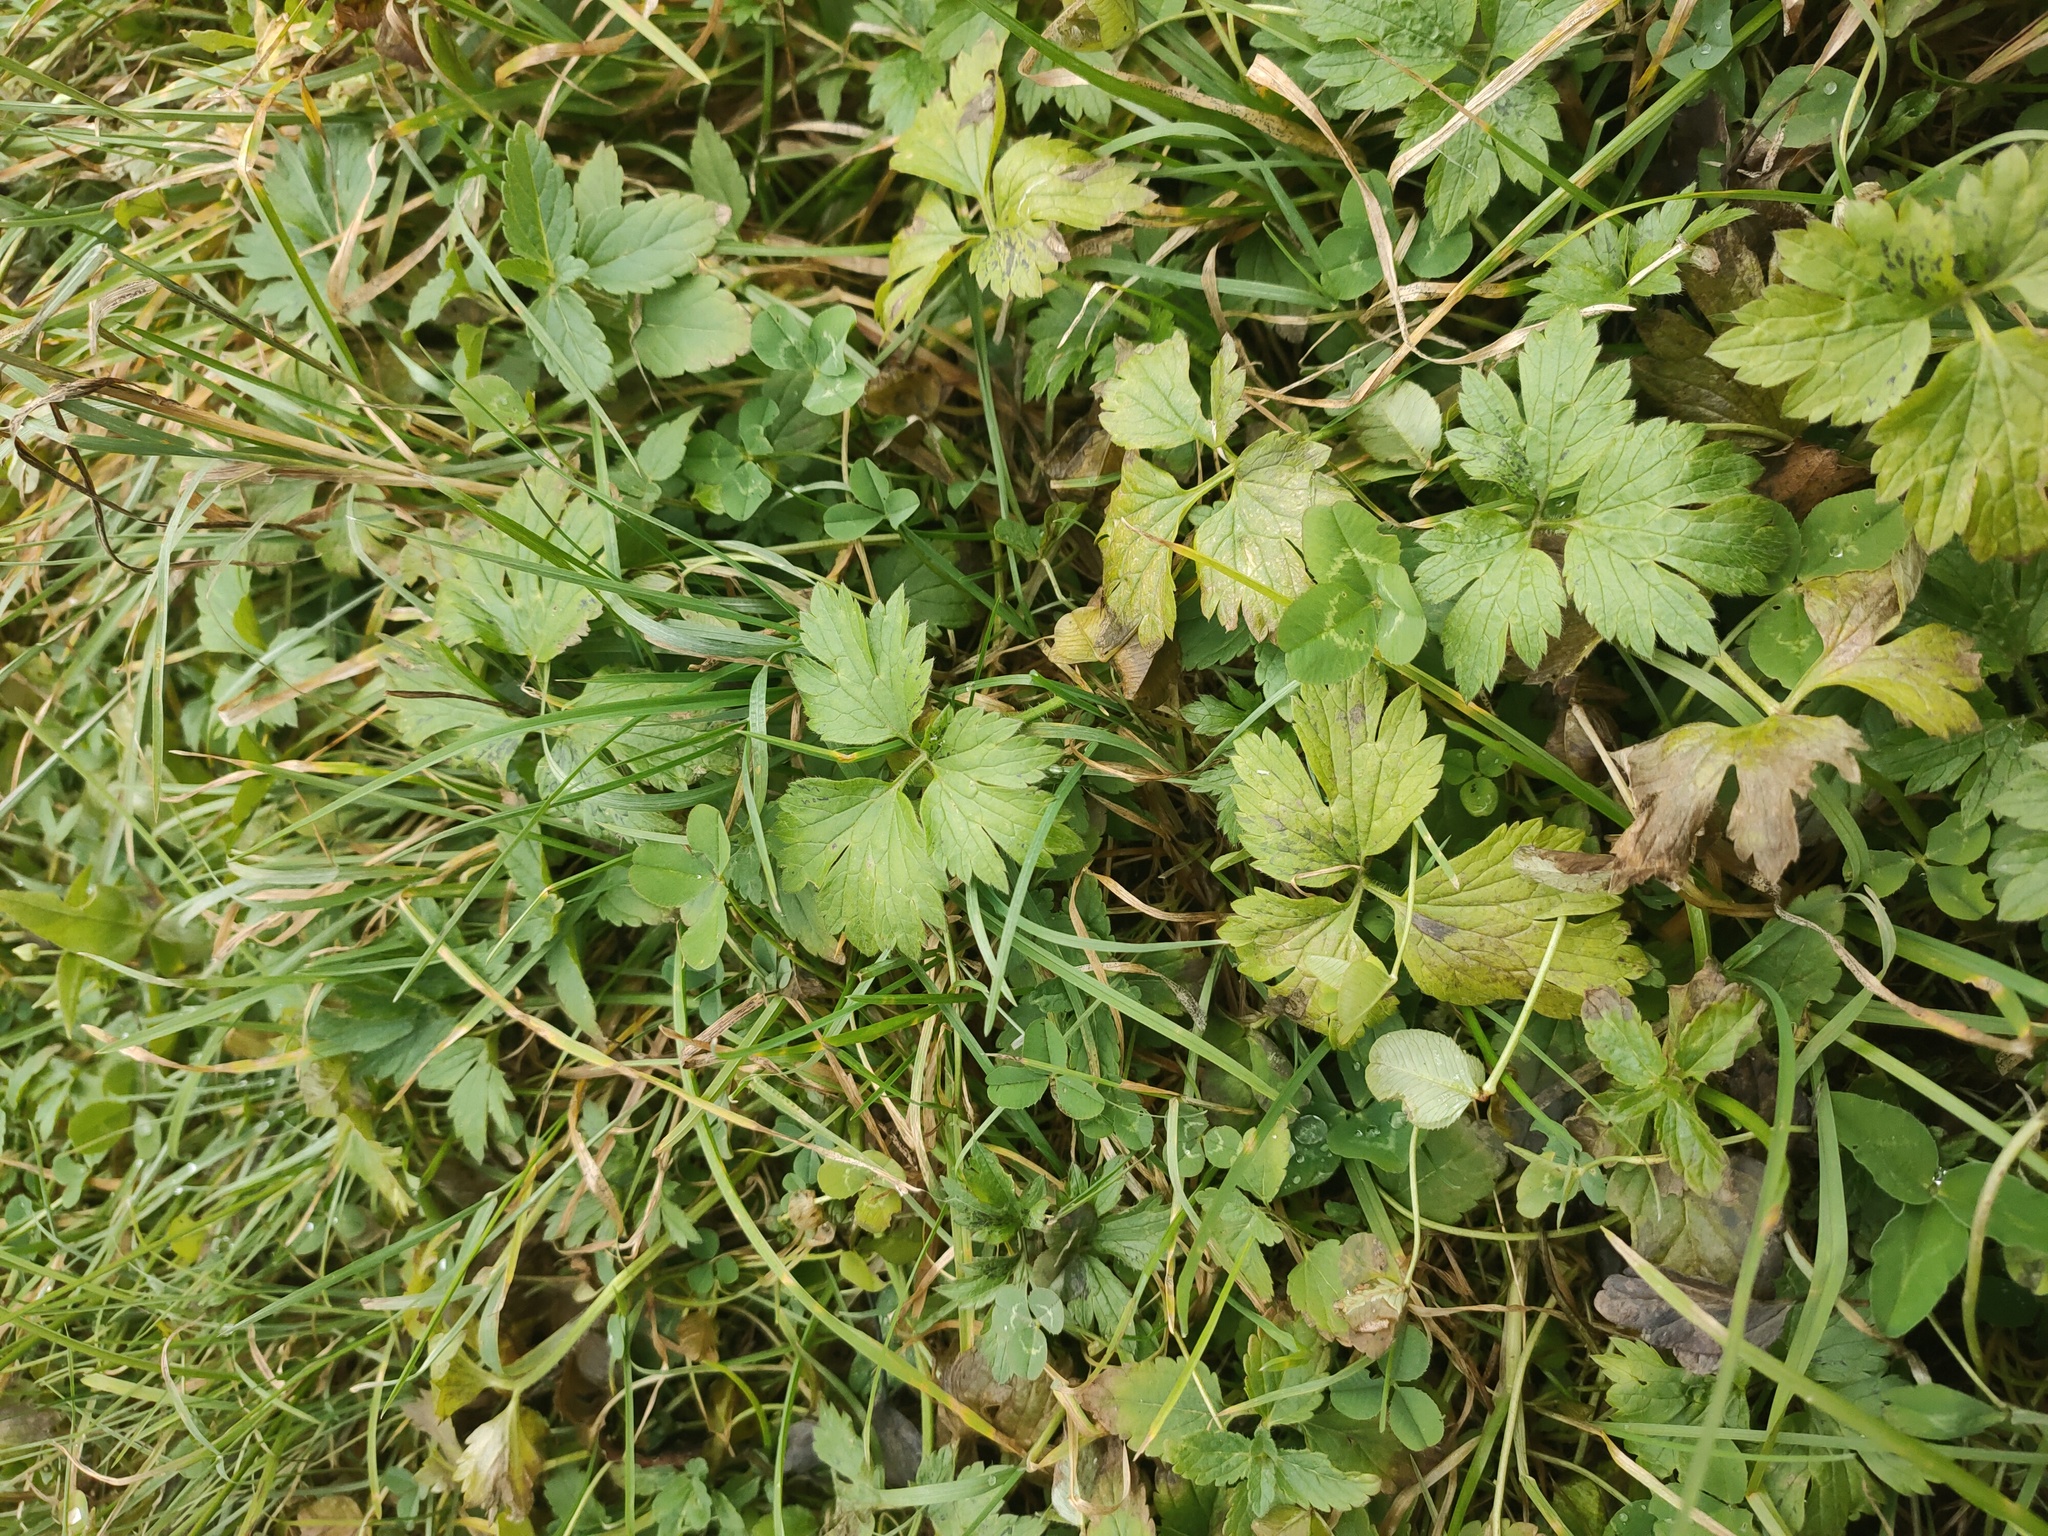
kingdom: Plantae
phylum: Tracheophyta
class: Magnoliopsida
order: Ranunculales
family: Ranunculaceae
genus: Ranunculus
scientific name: Ranunculus repens
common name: Creeping buttercup
